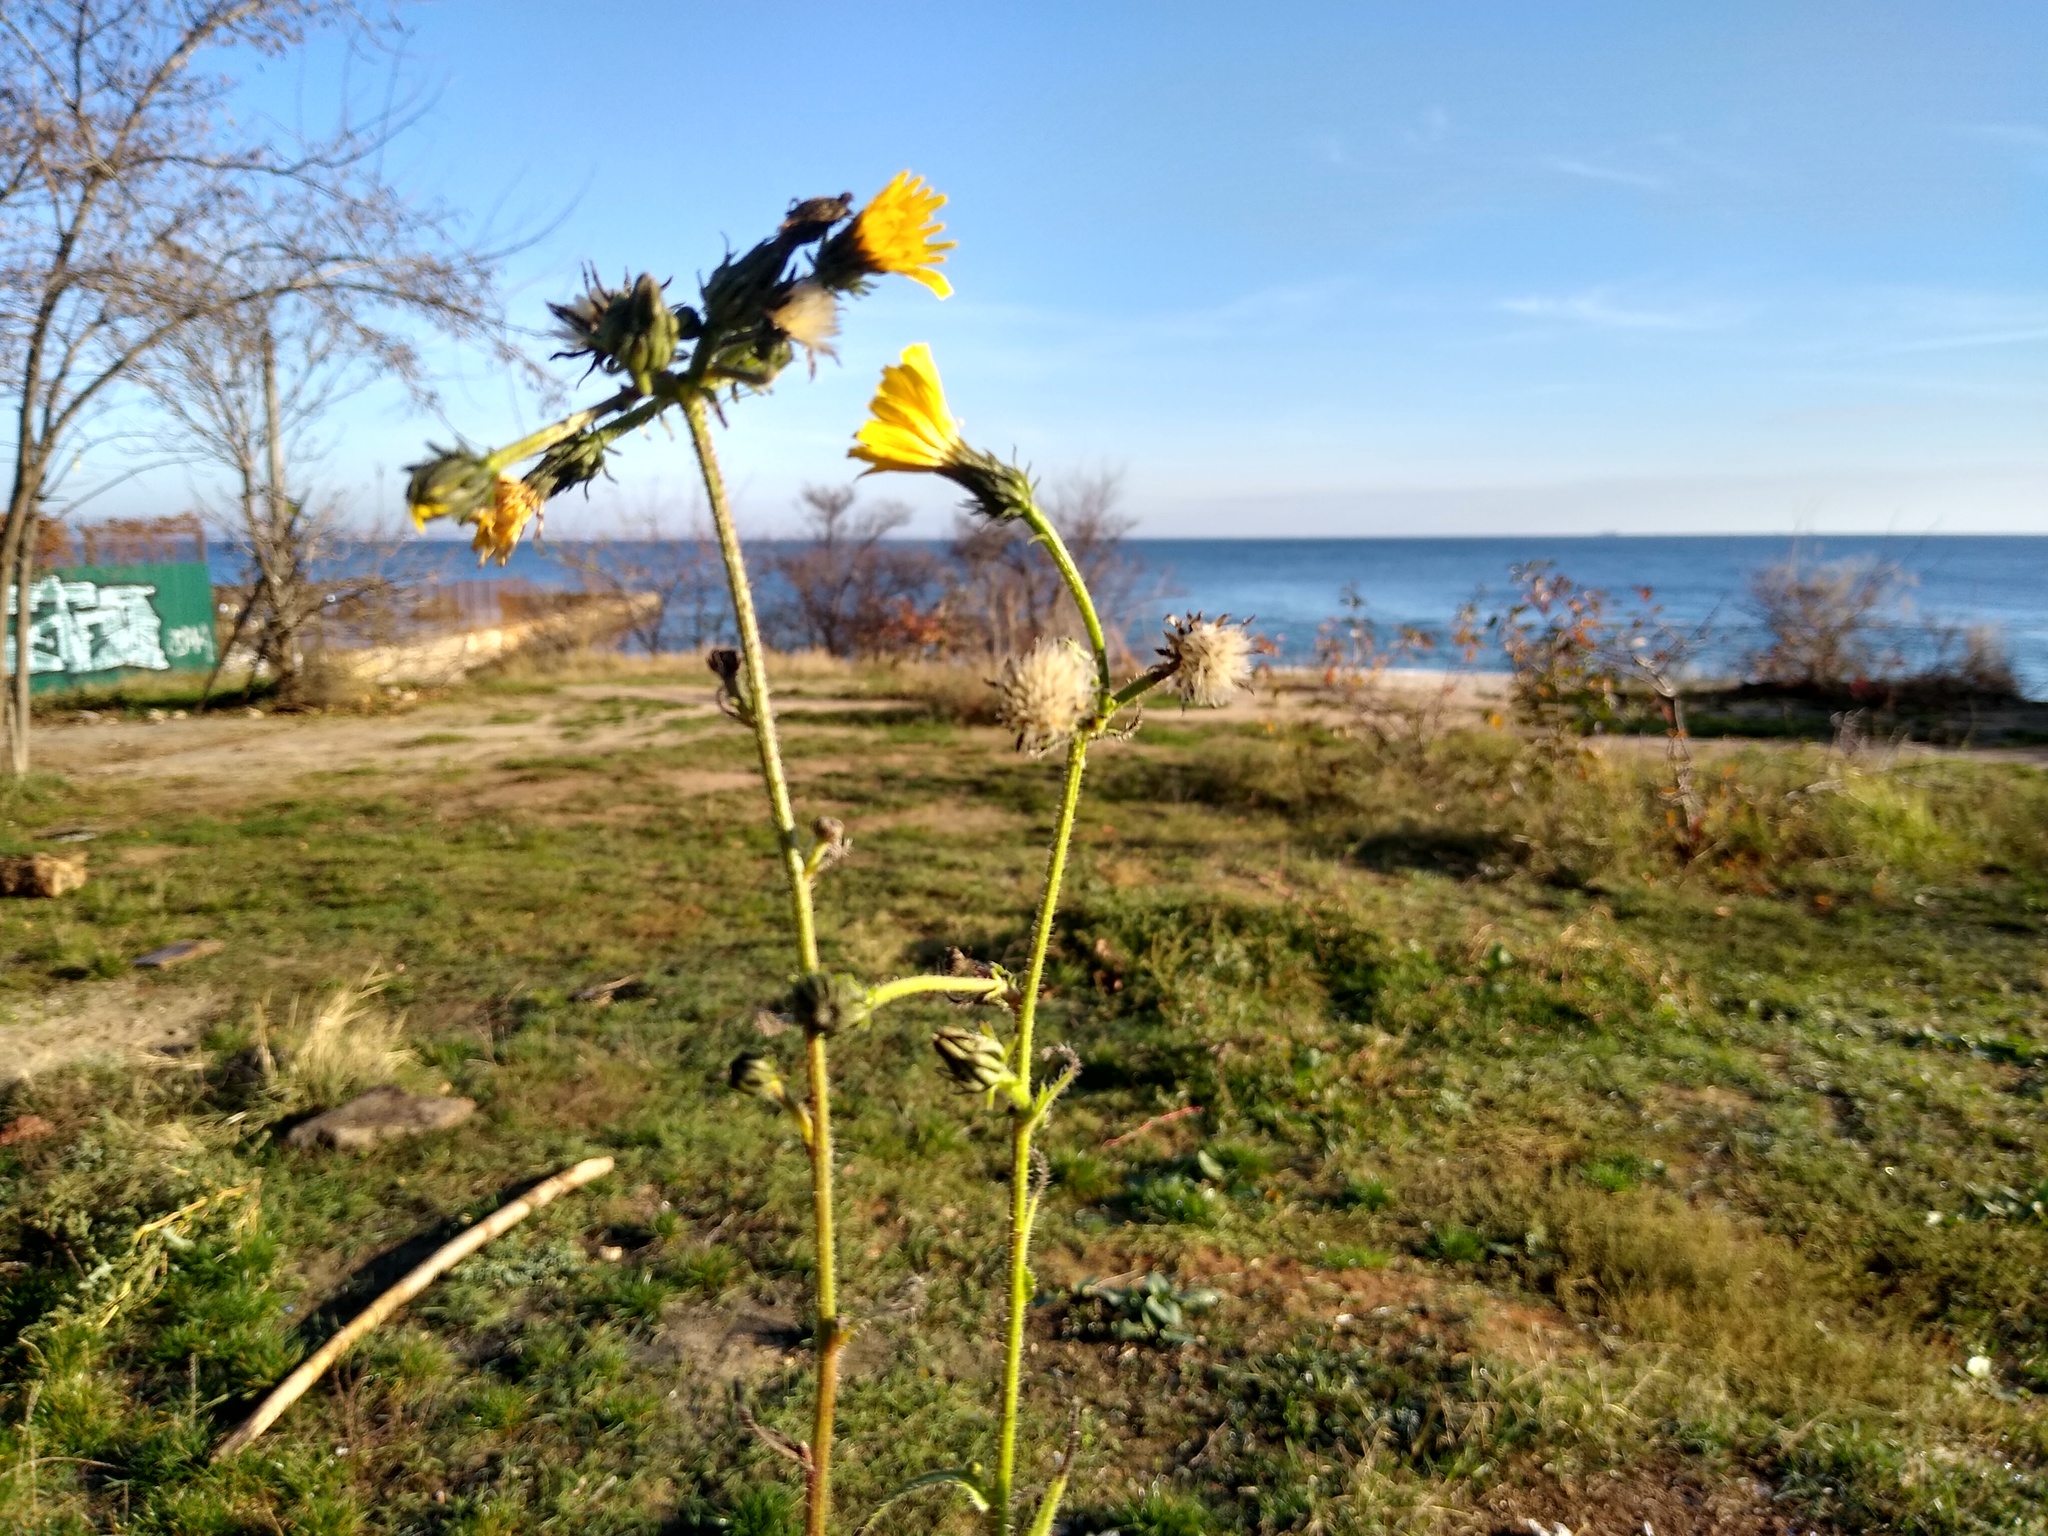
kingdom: Plantae
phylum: Tracheophyta
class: Magnoliopsida
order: Asterales
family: Asteraceae
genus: Picris
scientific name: Picris hieracioides
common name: Hawkweed oxtongue
